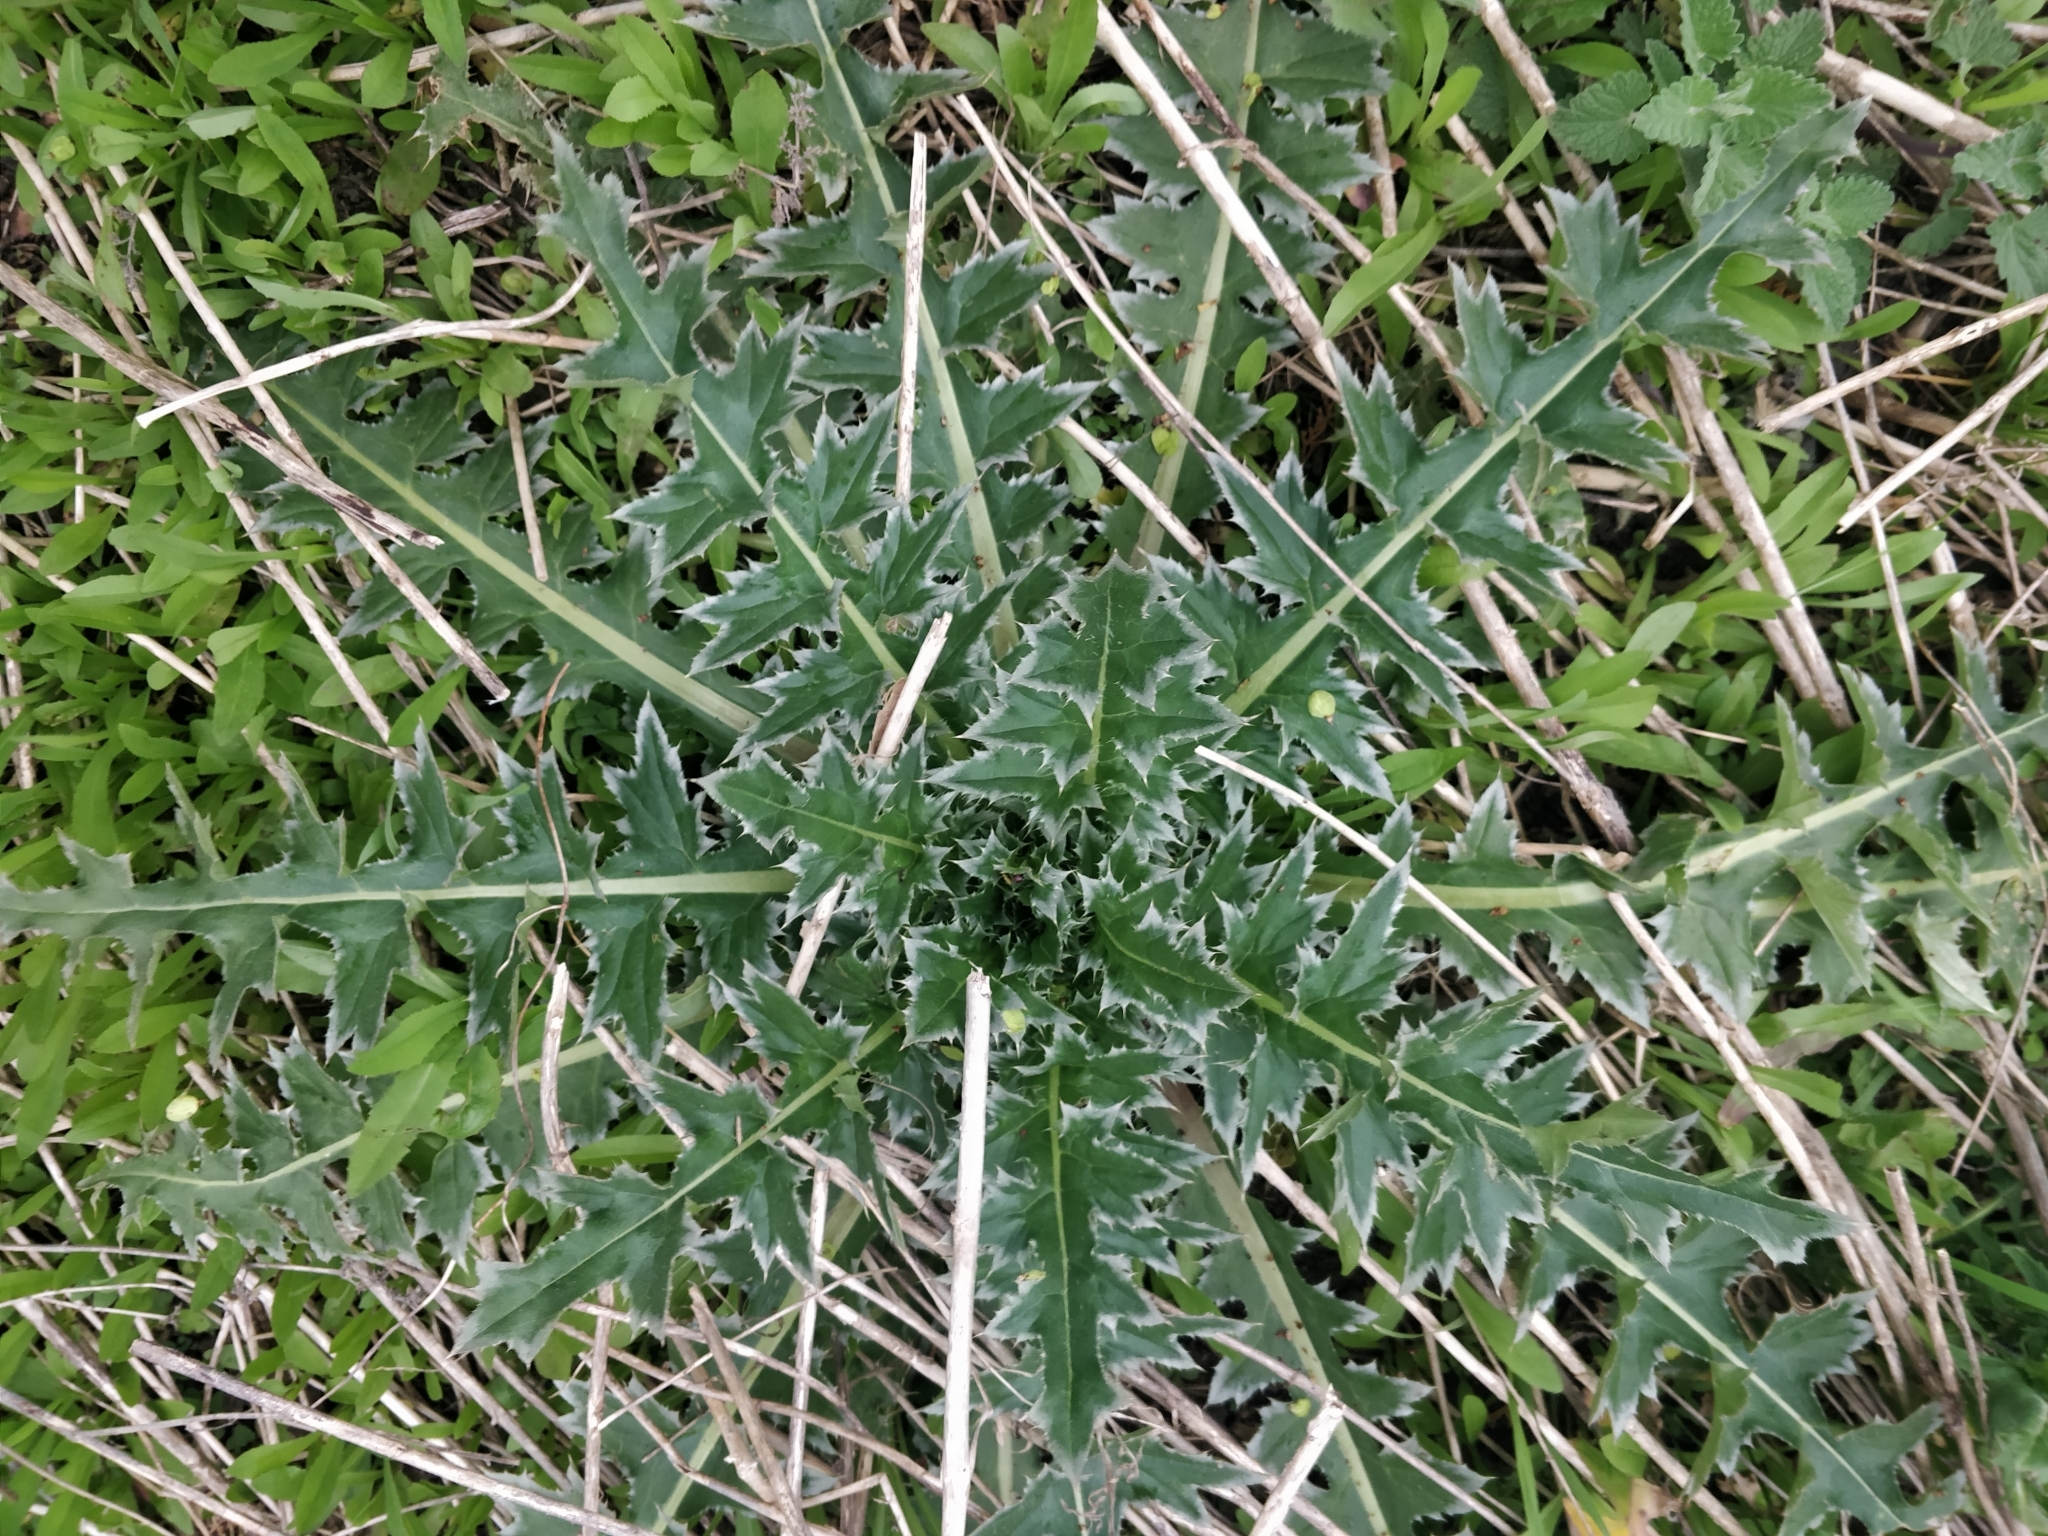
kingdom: Plantae
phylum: Tracheophyta
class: Magnoliopsida
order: Asterales
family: Asteraceae
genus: Carduus
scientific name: Carduus nutans
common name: Musk thistle
